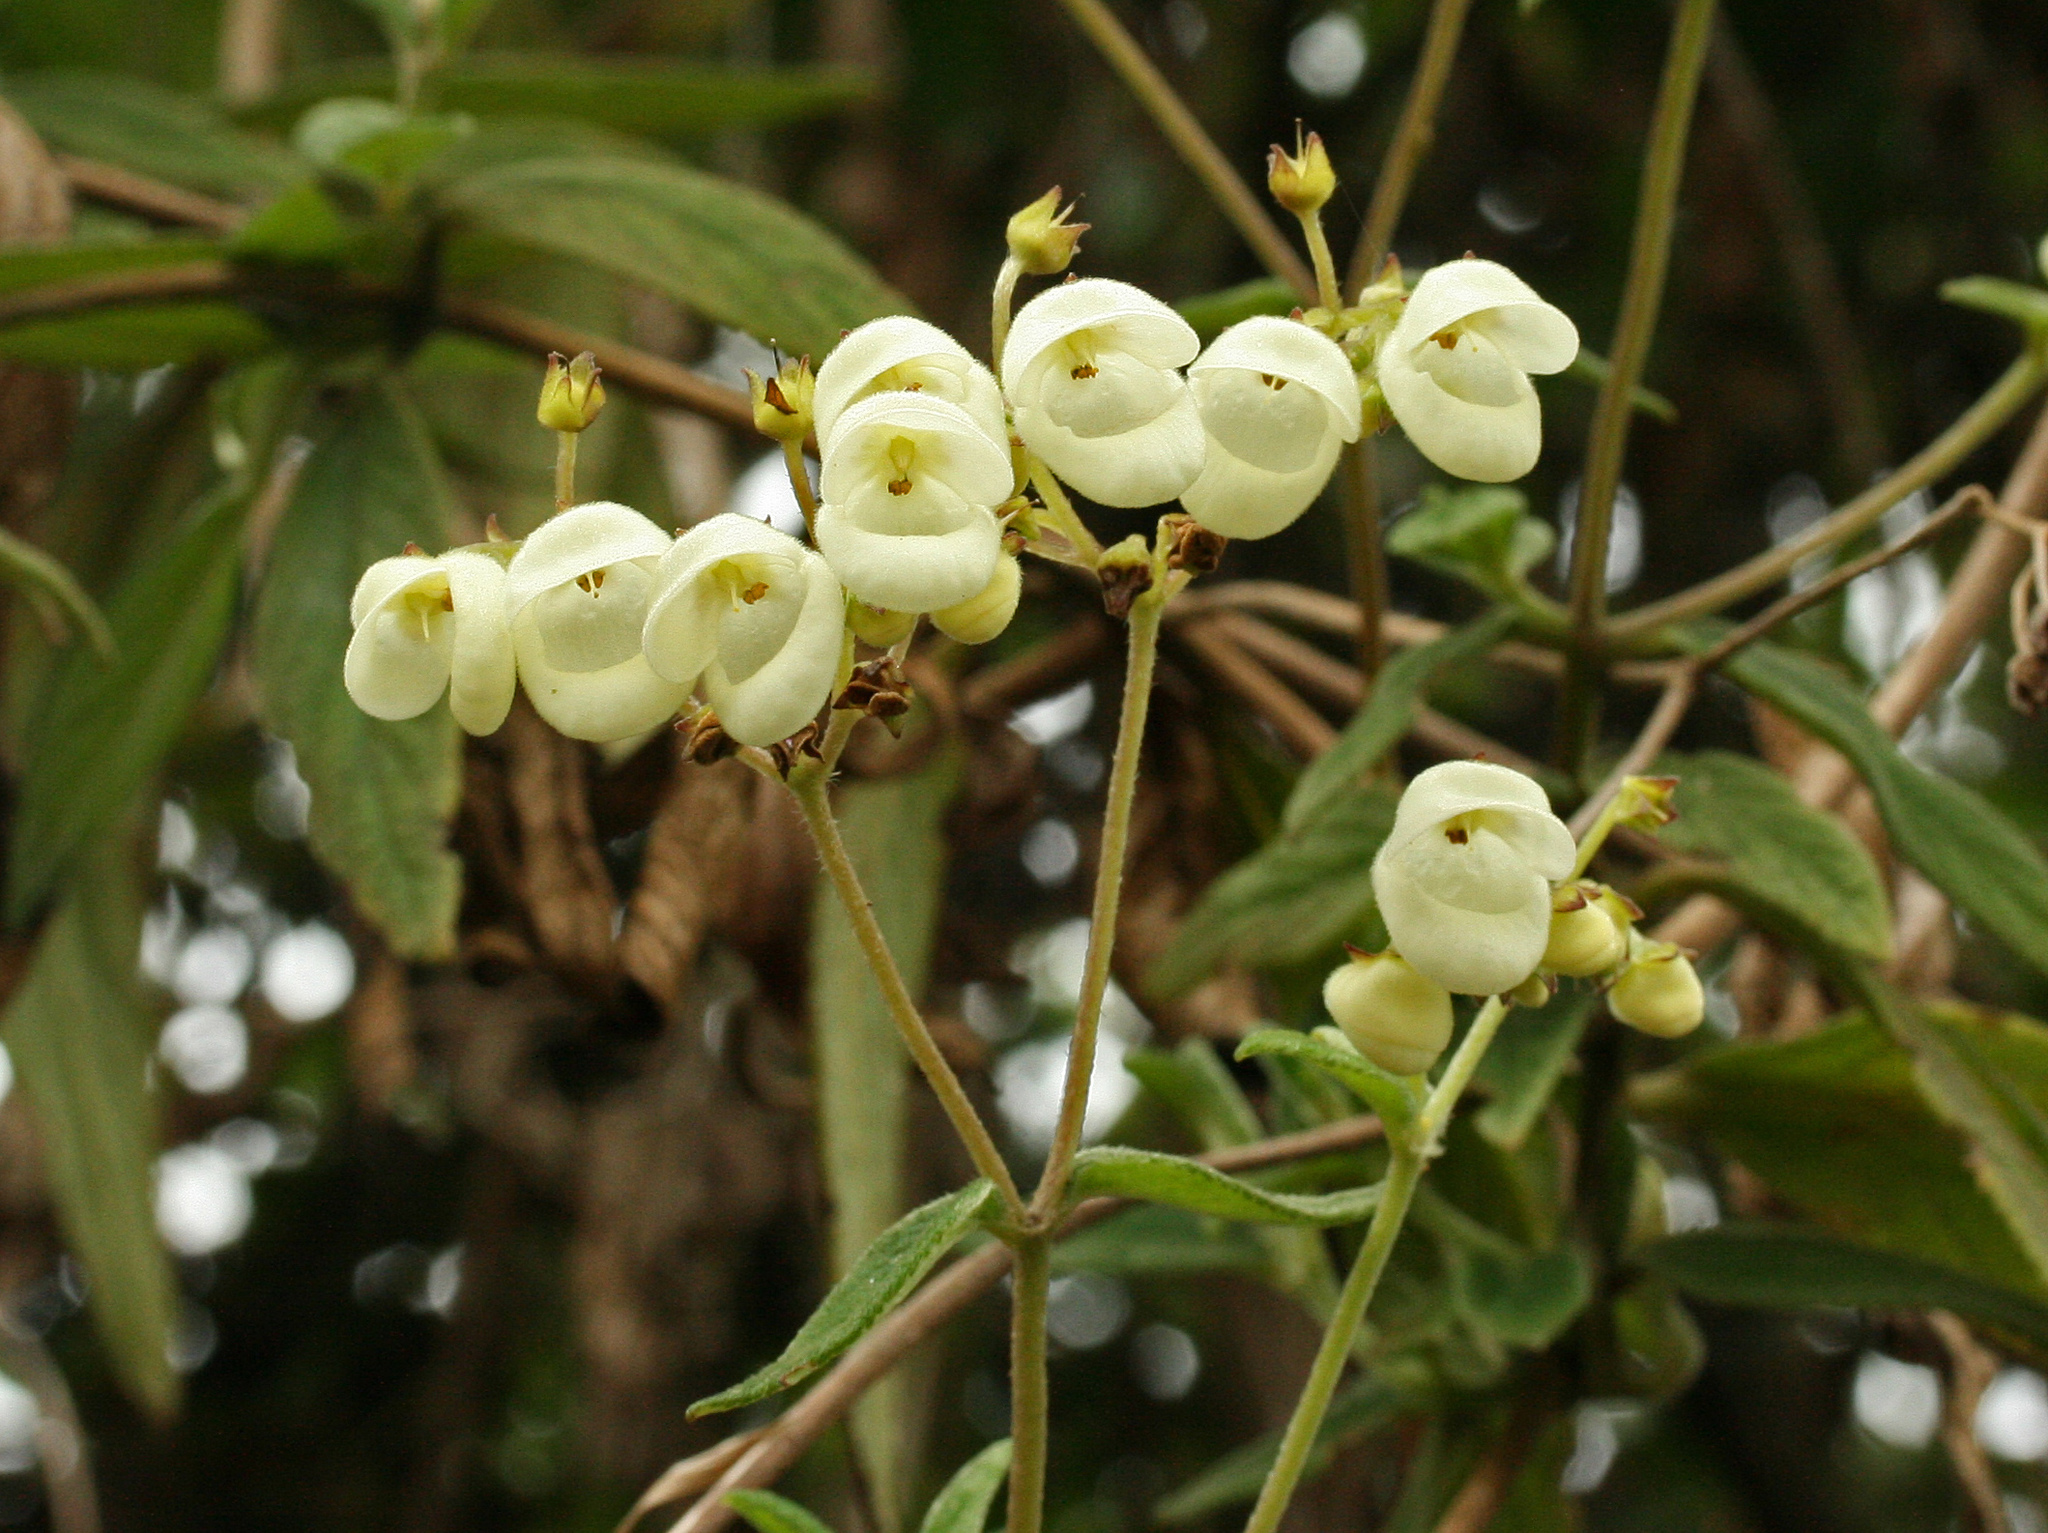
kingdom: Plantae
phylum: Tracheophyta
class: Magnoliopsida
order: Lamiales
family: Calceolariaceae
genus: Calceolaria
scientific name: Calceolaria martinezii
